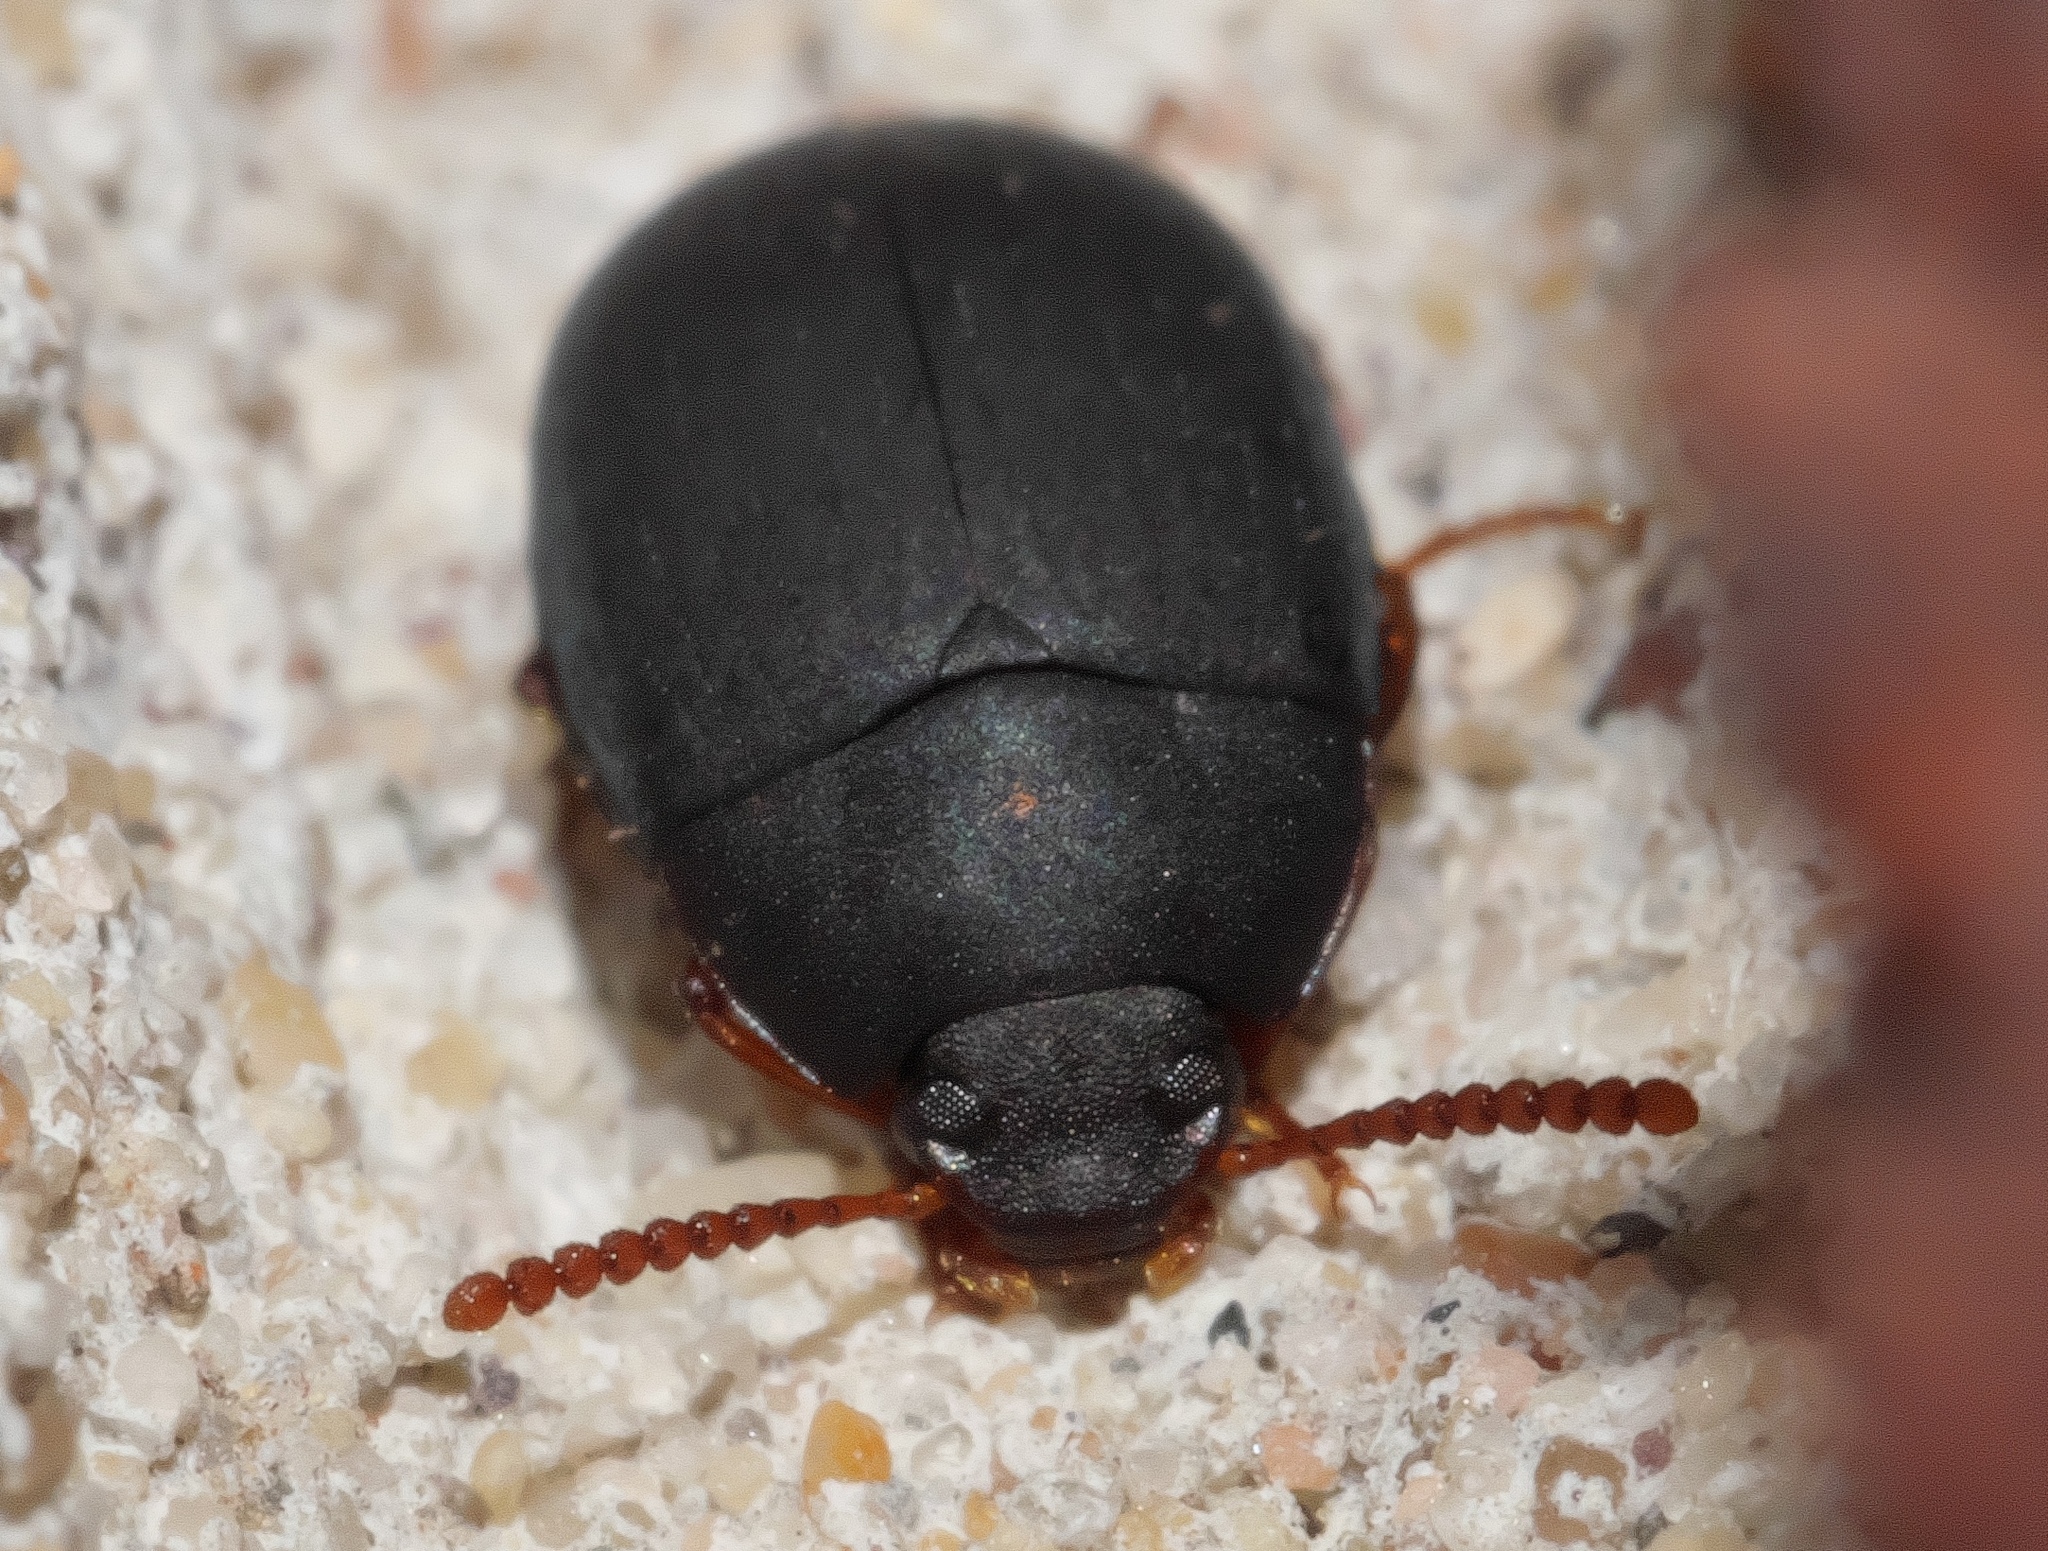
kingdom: Animalia
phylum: Arthropoda
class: Insecta
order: Coleoptera
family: Tenebrionidae
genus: Platydema
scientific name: Platydema ruficornis
